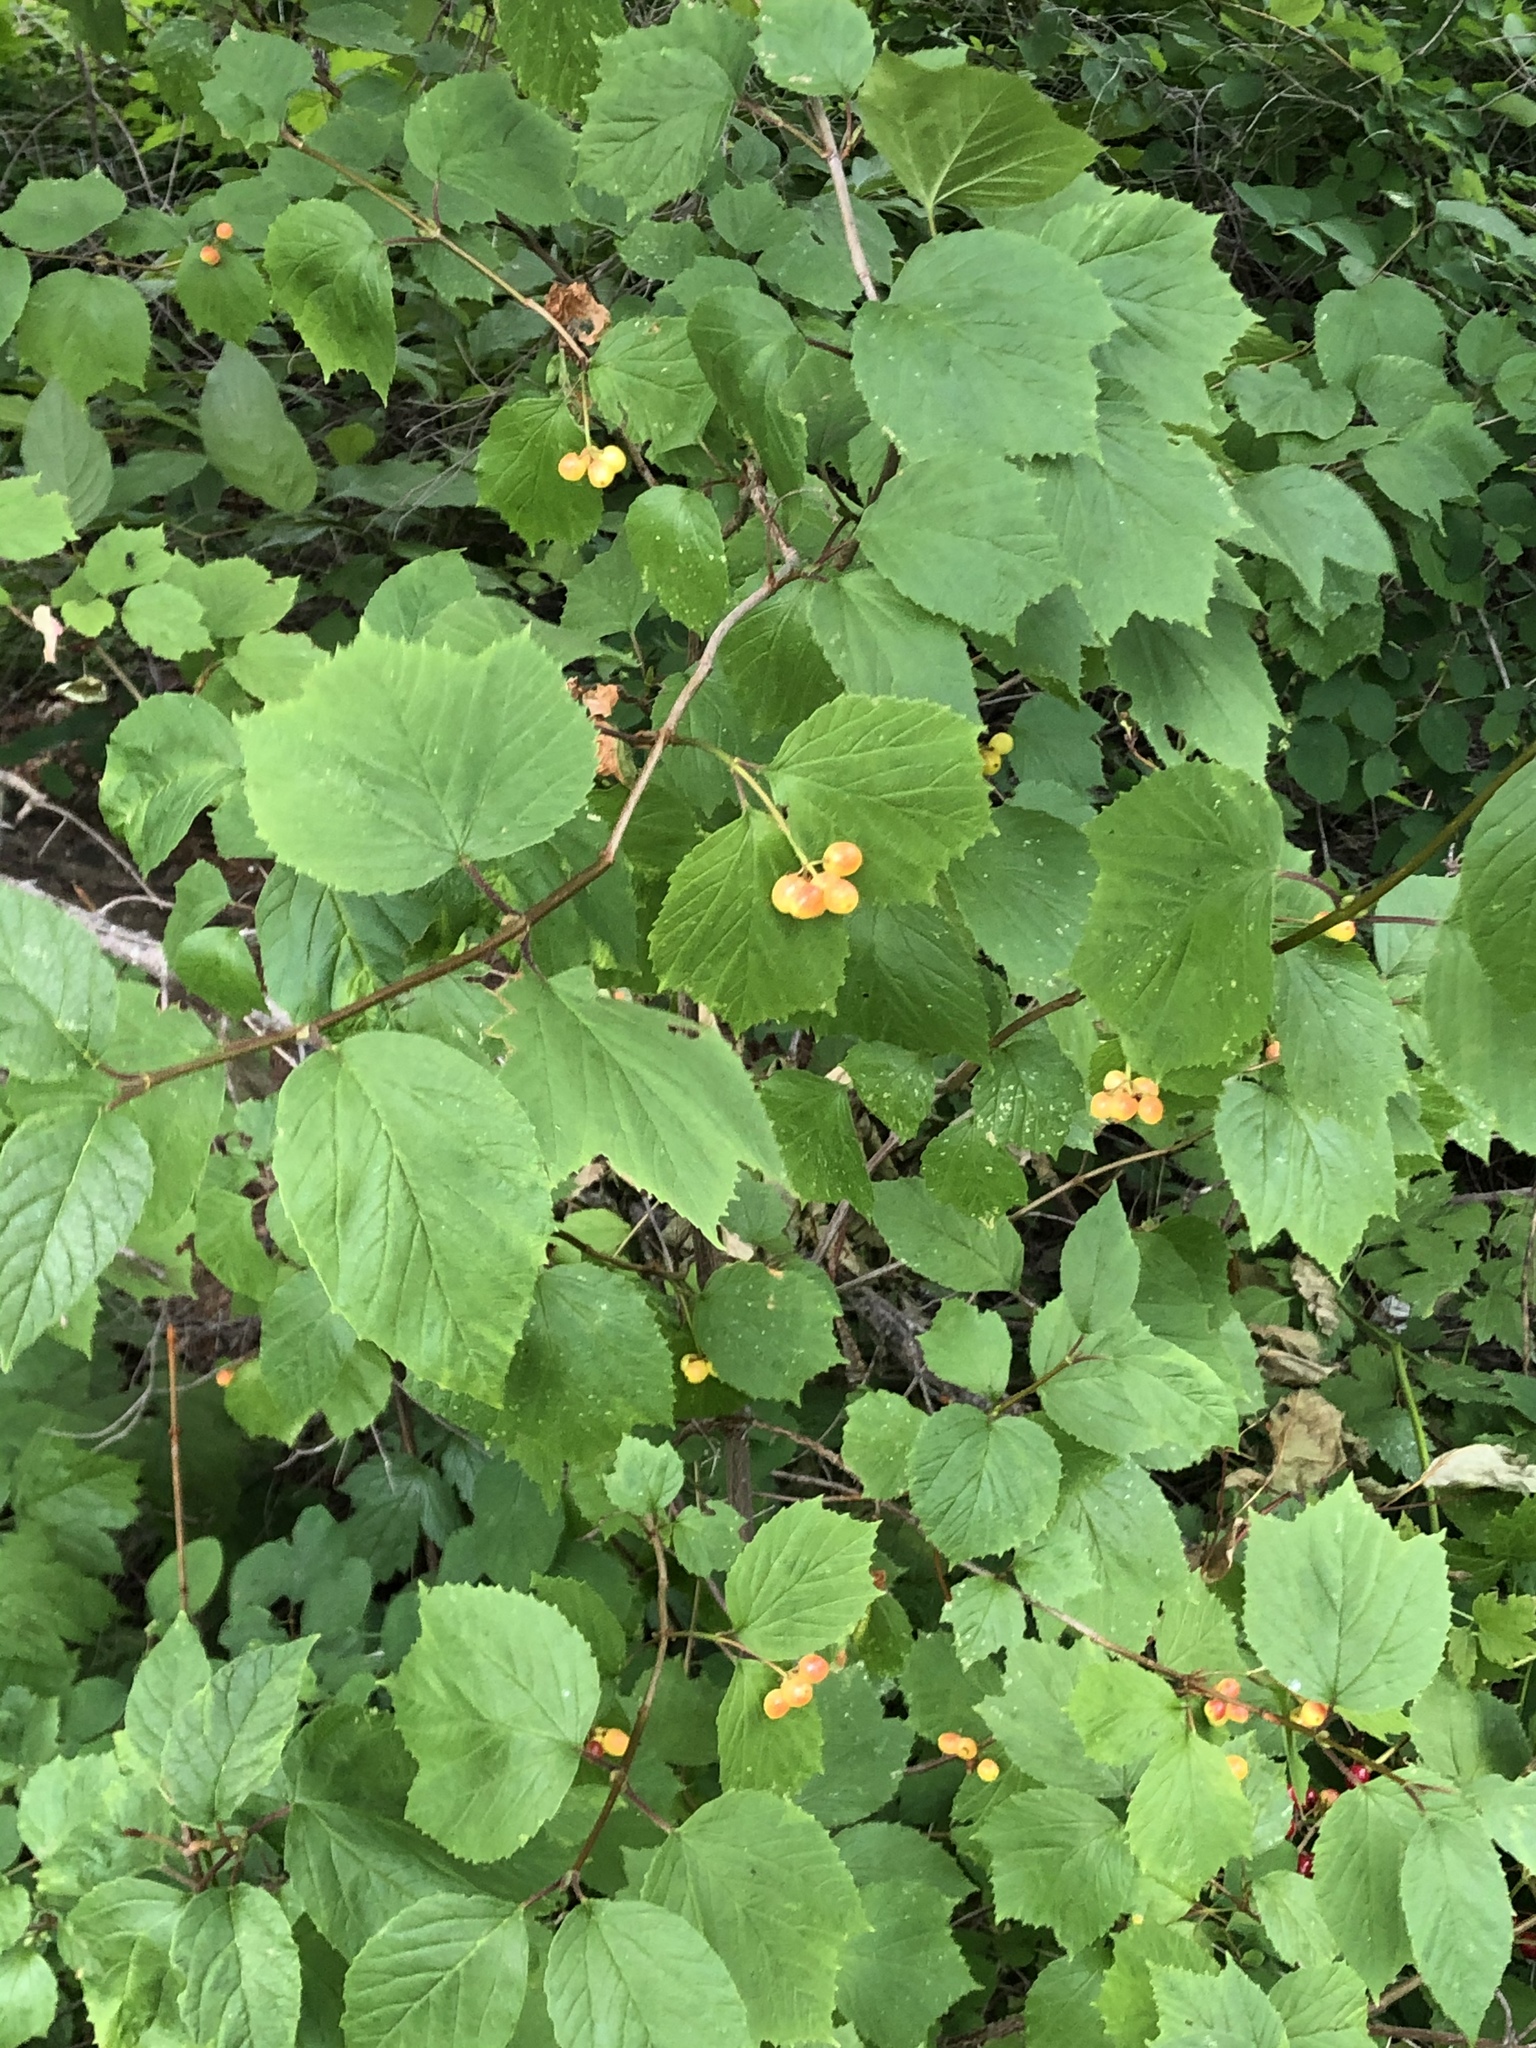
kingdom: Plantae
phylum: Tracheophyta
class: Magnoliopsida
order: Dipsacales
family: Viburnaceae
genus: Viburnum
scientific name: Viburnum edule
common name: Mooseberry
